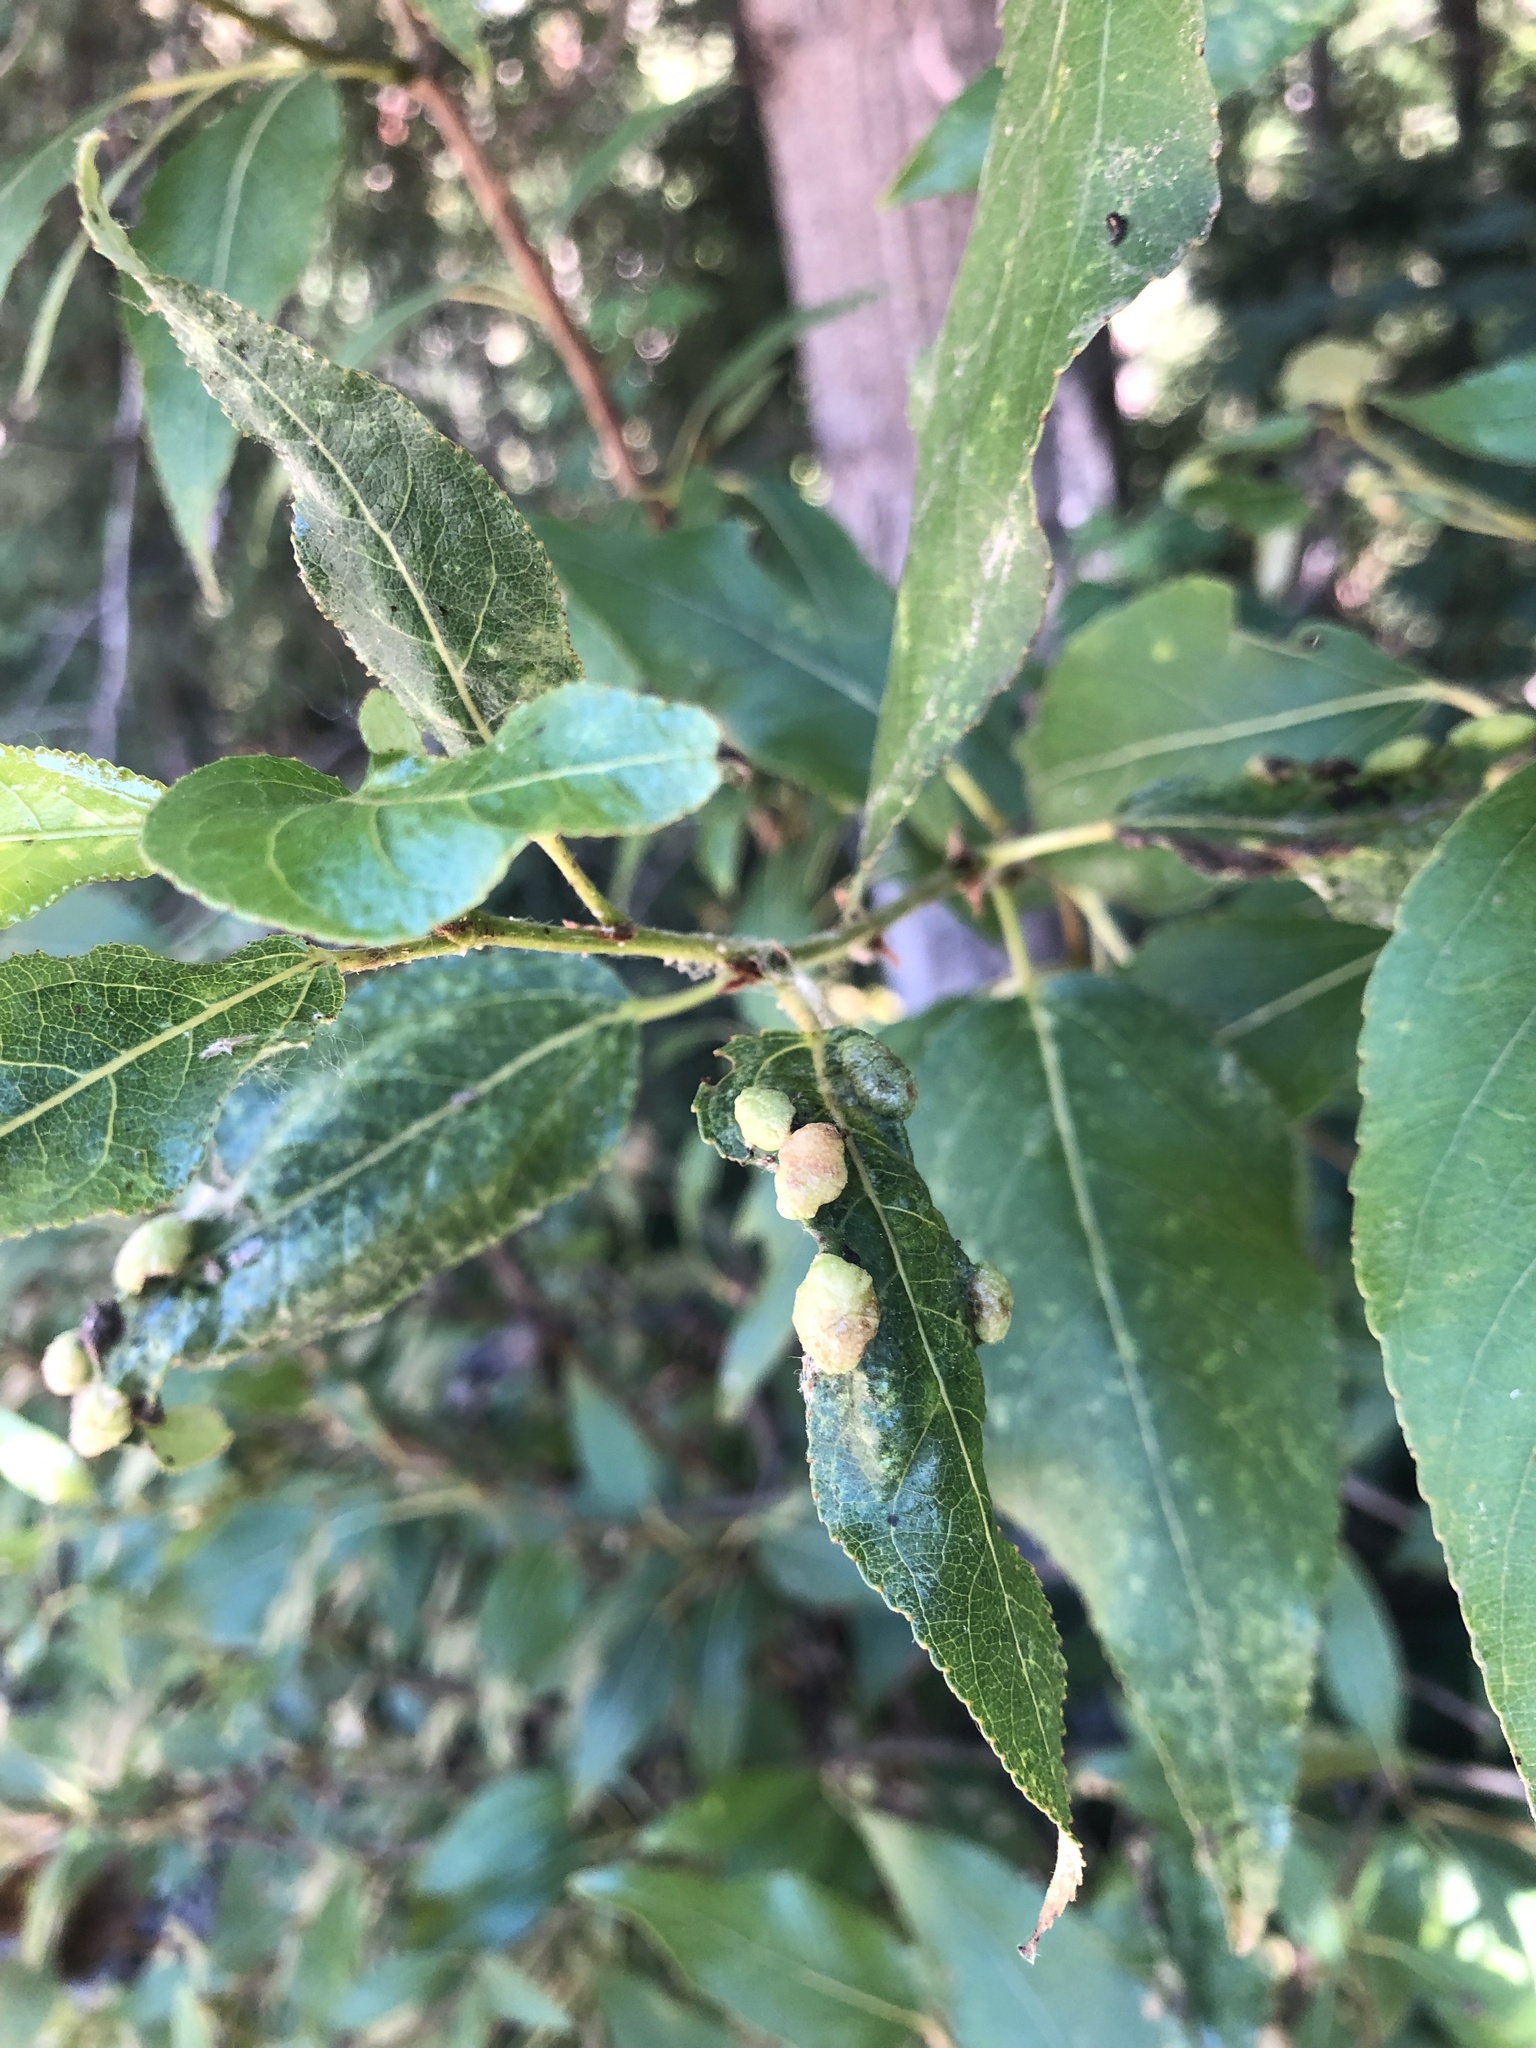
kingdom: Animalia
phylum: Arthropoda
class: Insecta
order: Hemiptera
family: Aphididae
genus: Thecabius
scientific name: Thecabius populimonilis
